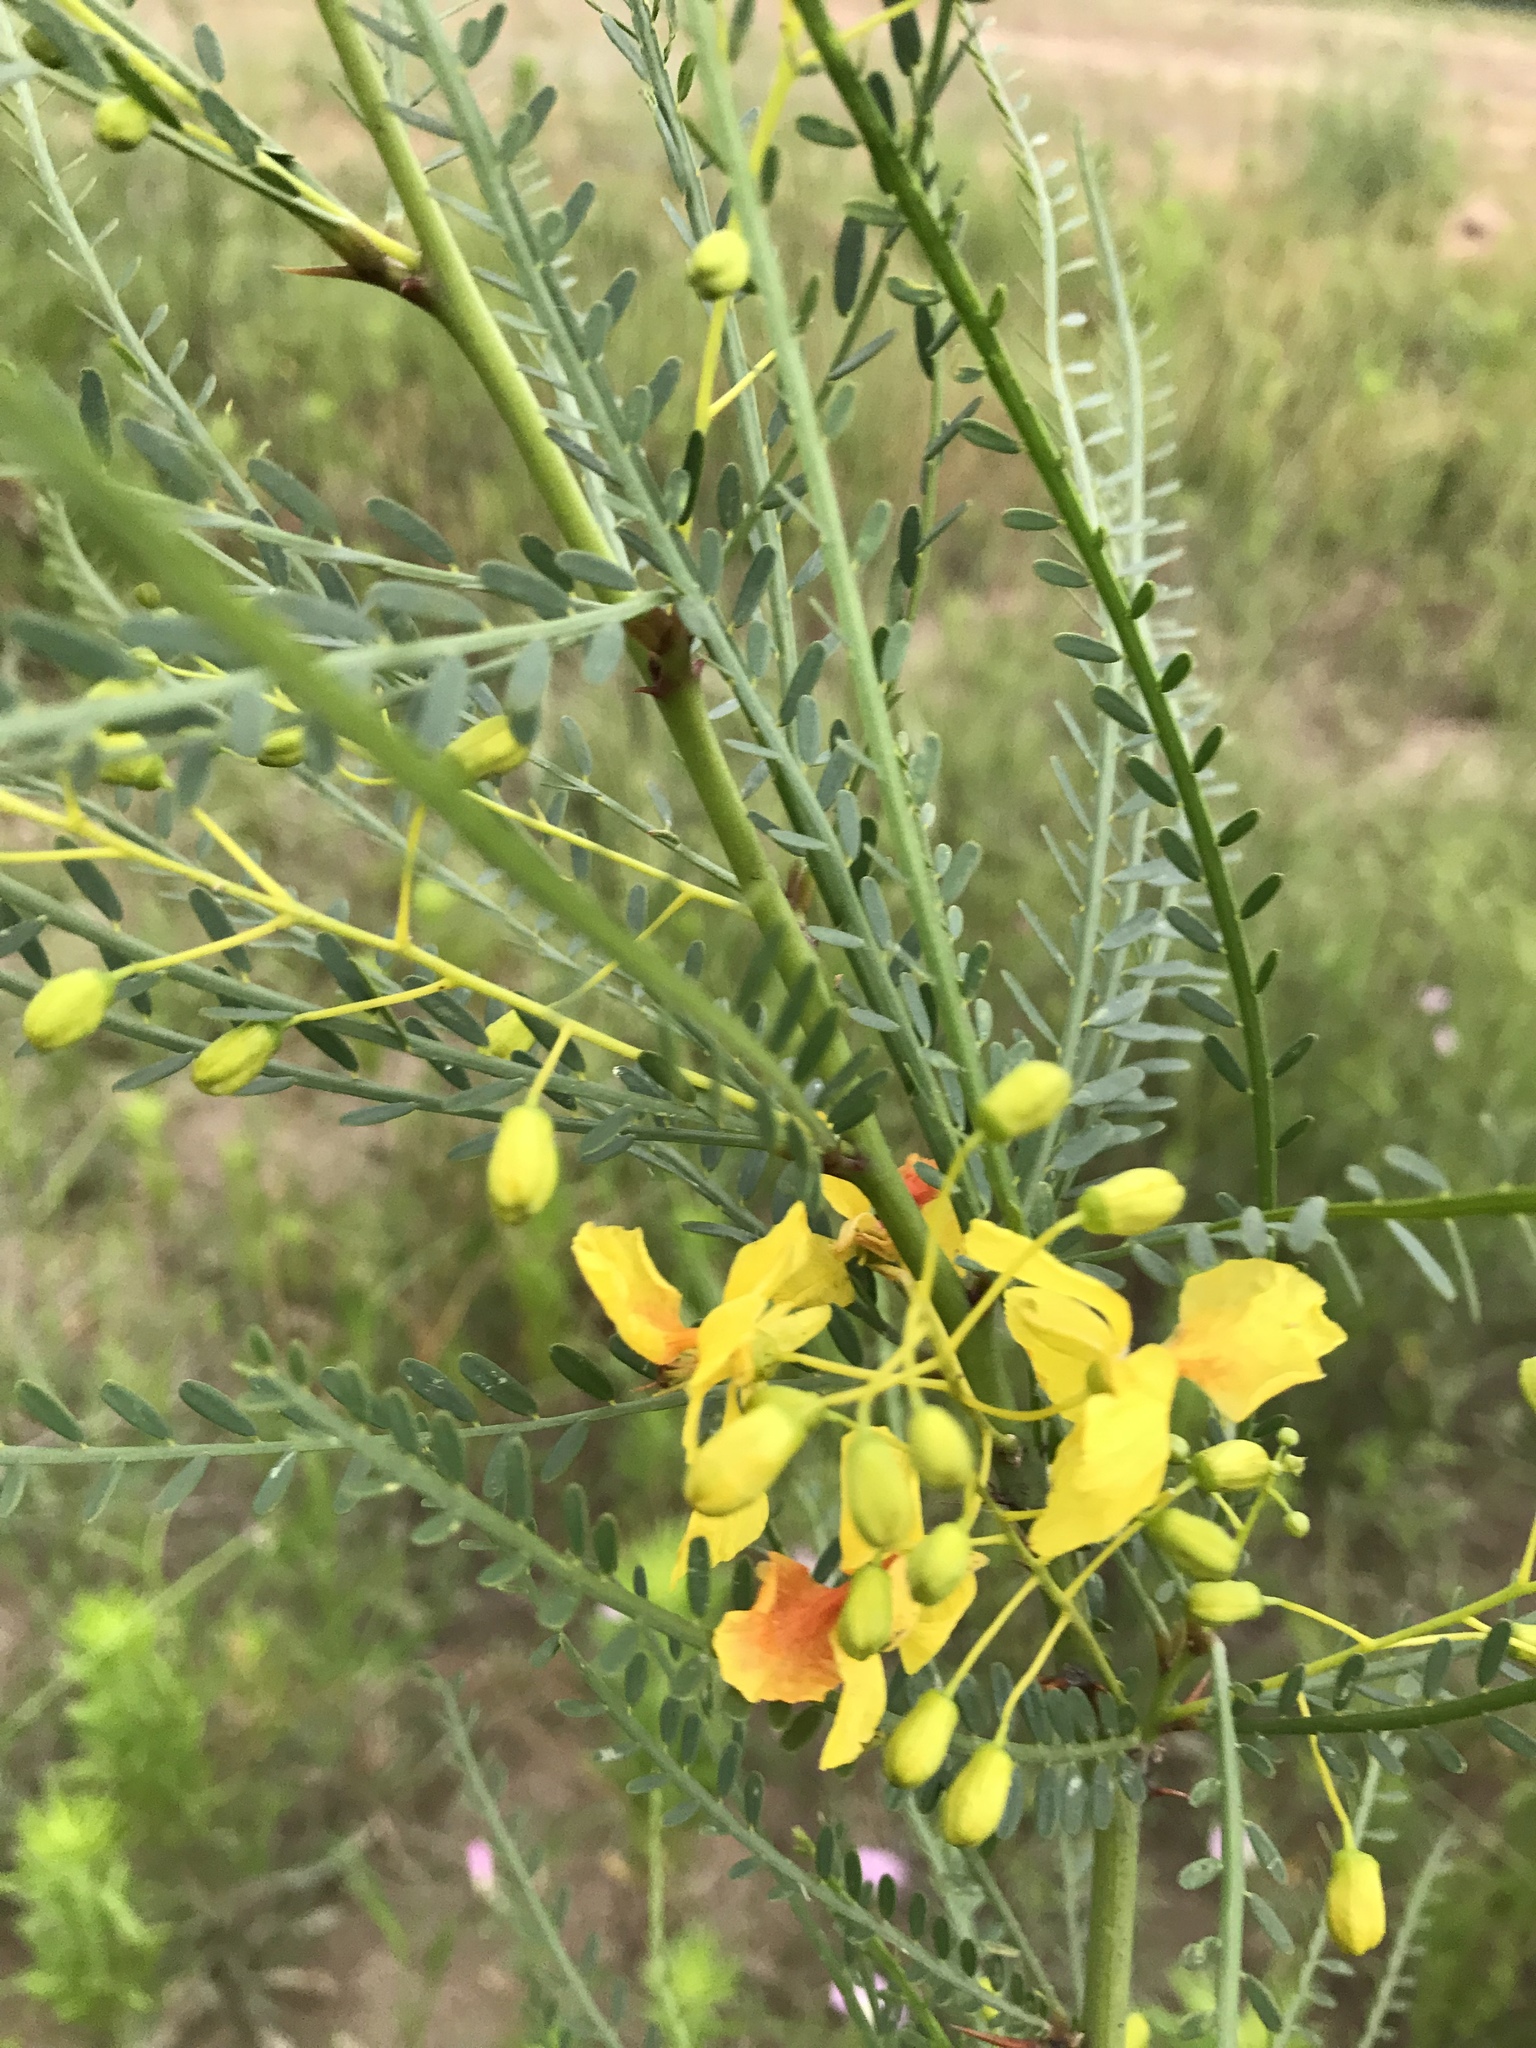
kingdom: Plantae
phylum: Tracheophyta
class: Magnoliopsida
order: Fabales
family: Fabaceae
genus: Parkinsonia
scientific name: Parkinsonia aculeata
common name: Jerusalem thorn
